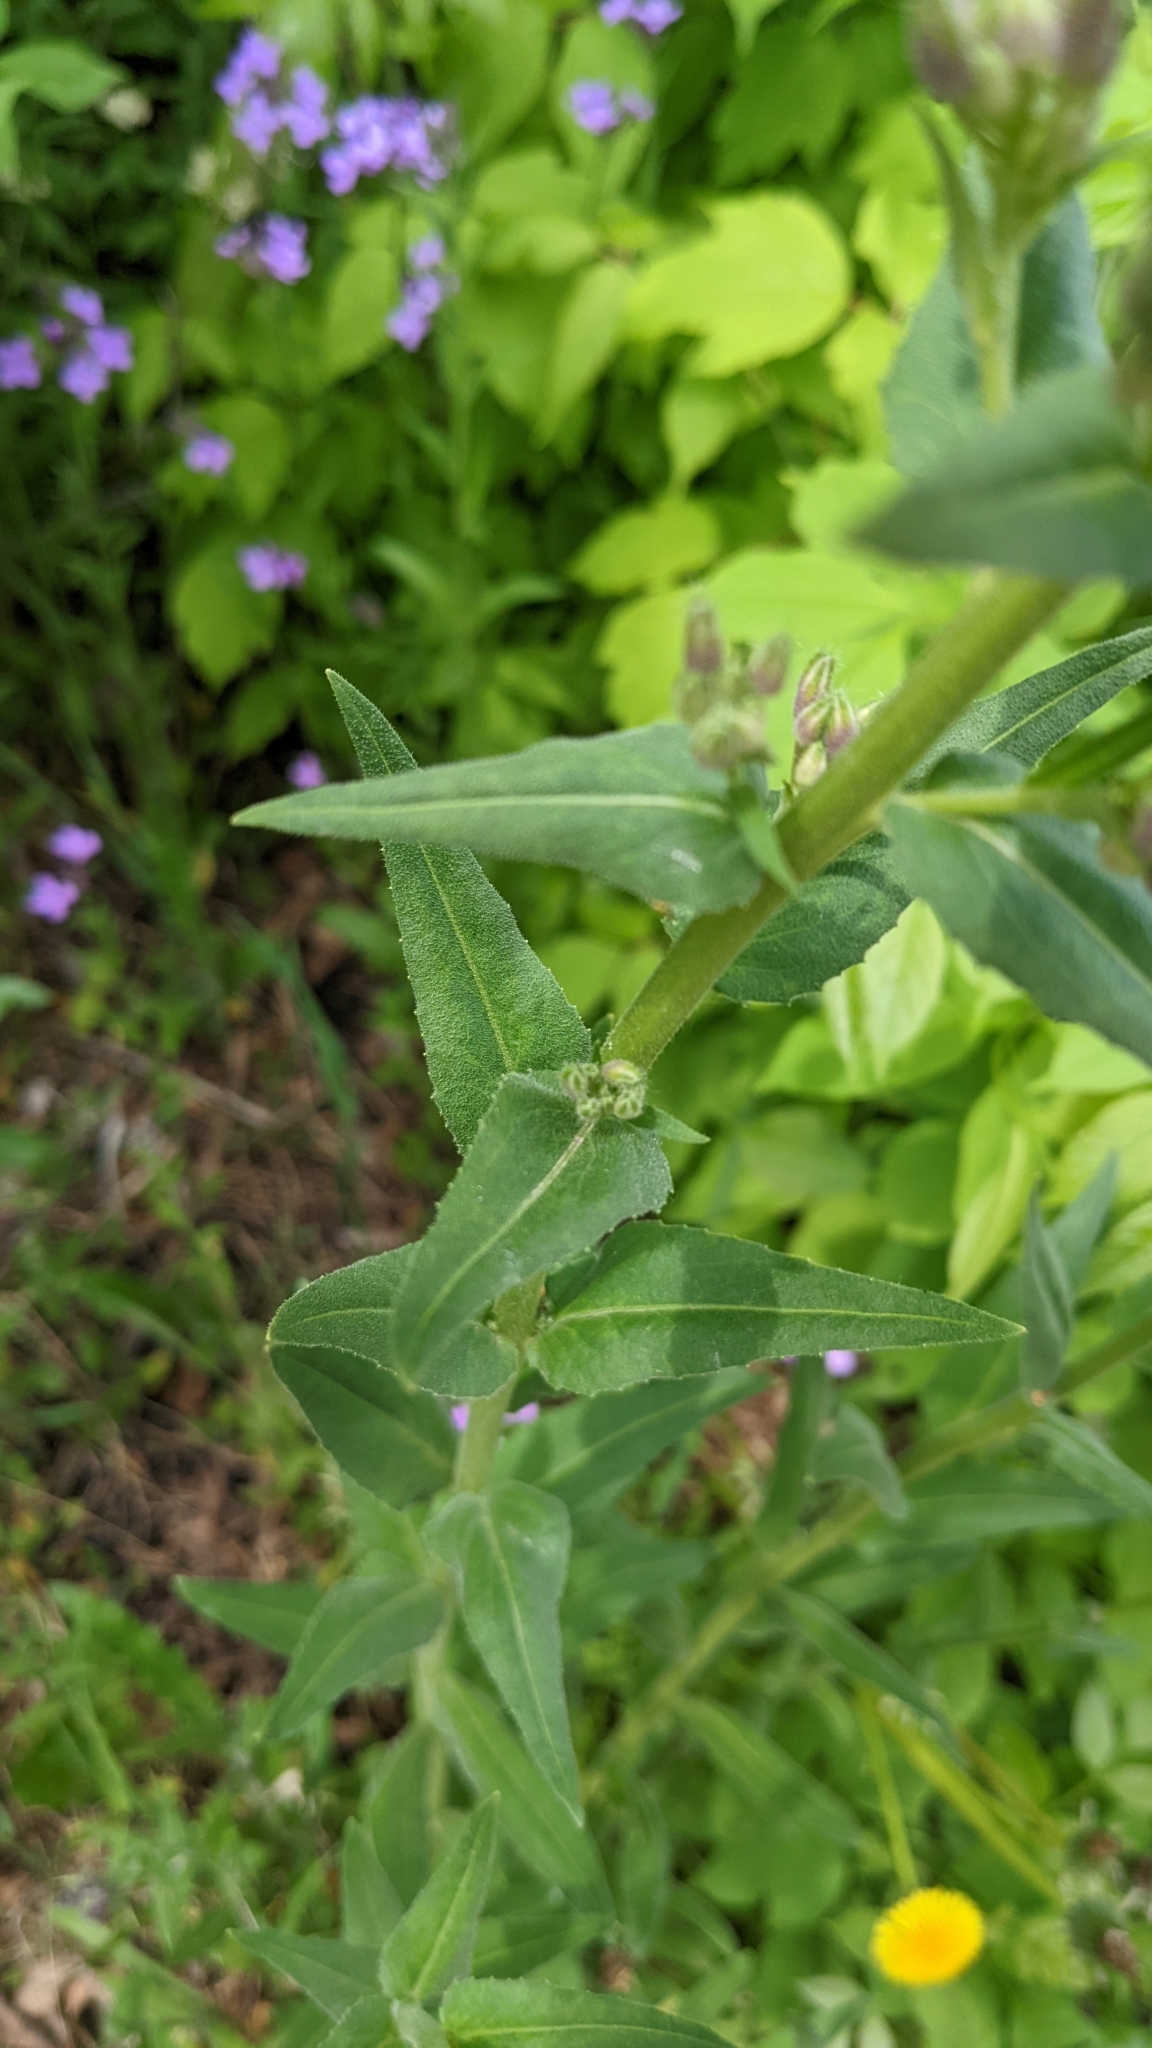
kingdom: Plantae
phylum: Tracheophyta
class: Magnoliopsida
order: Brassicales
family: Brassicaceae
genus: Hesperis
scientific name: Hesperis matronalis
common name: Dame's-violet
